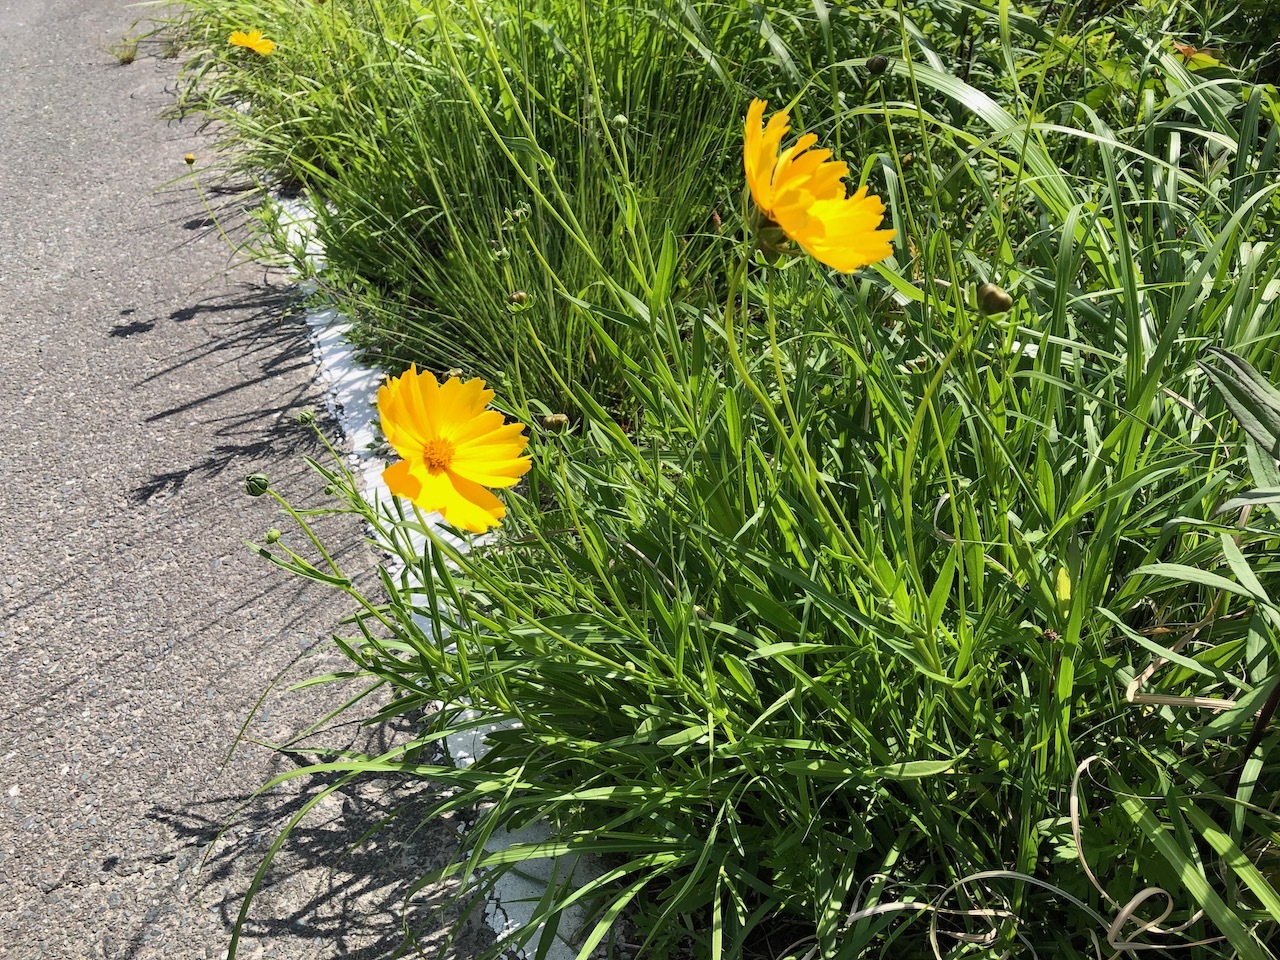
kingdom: Plantae
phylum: Tracheophyta
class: Magnoliopsida
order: Asterales
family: Asteraceae
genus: Coreopsis
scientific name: Coreopsis lanceolata
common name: Garden coreopsis
